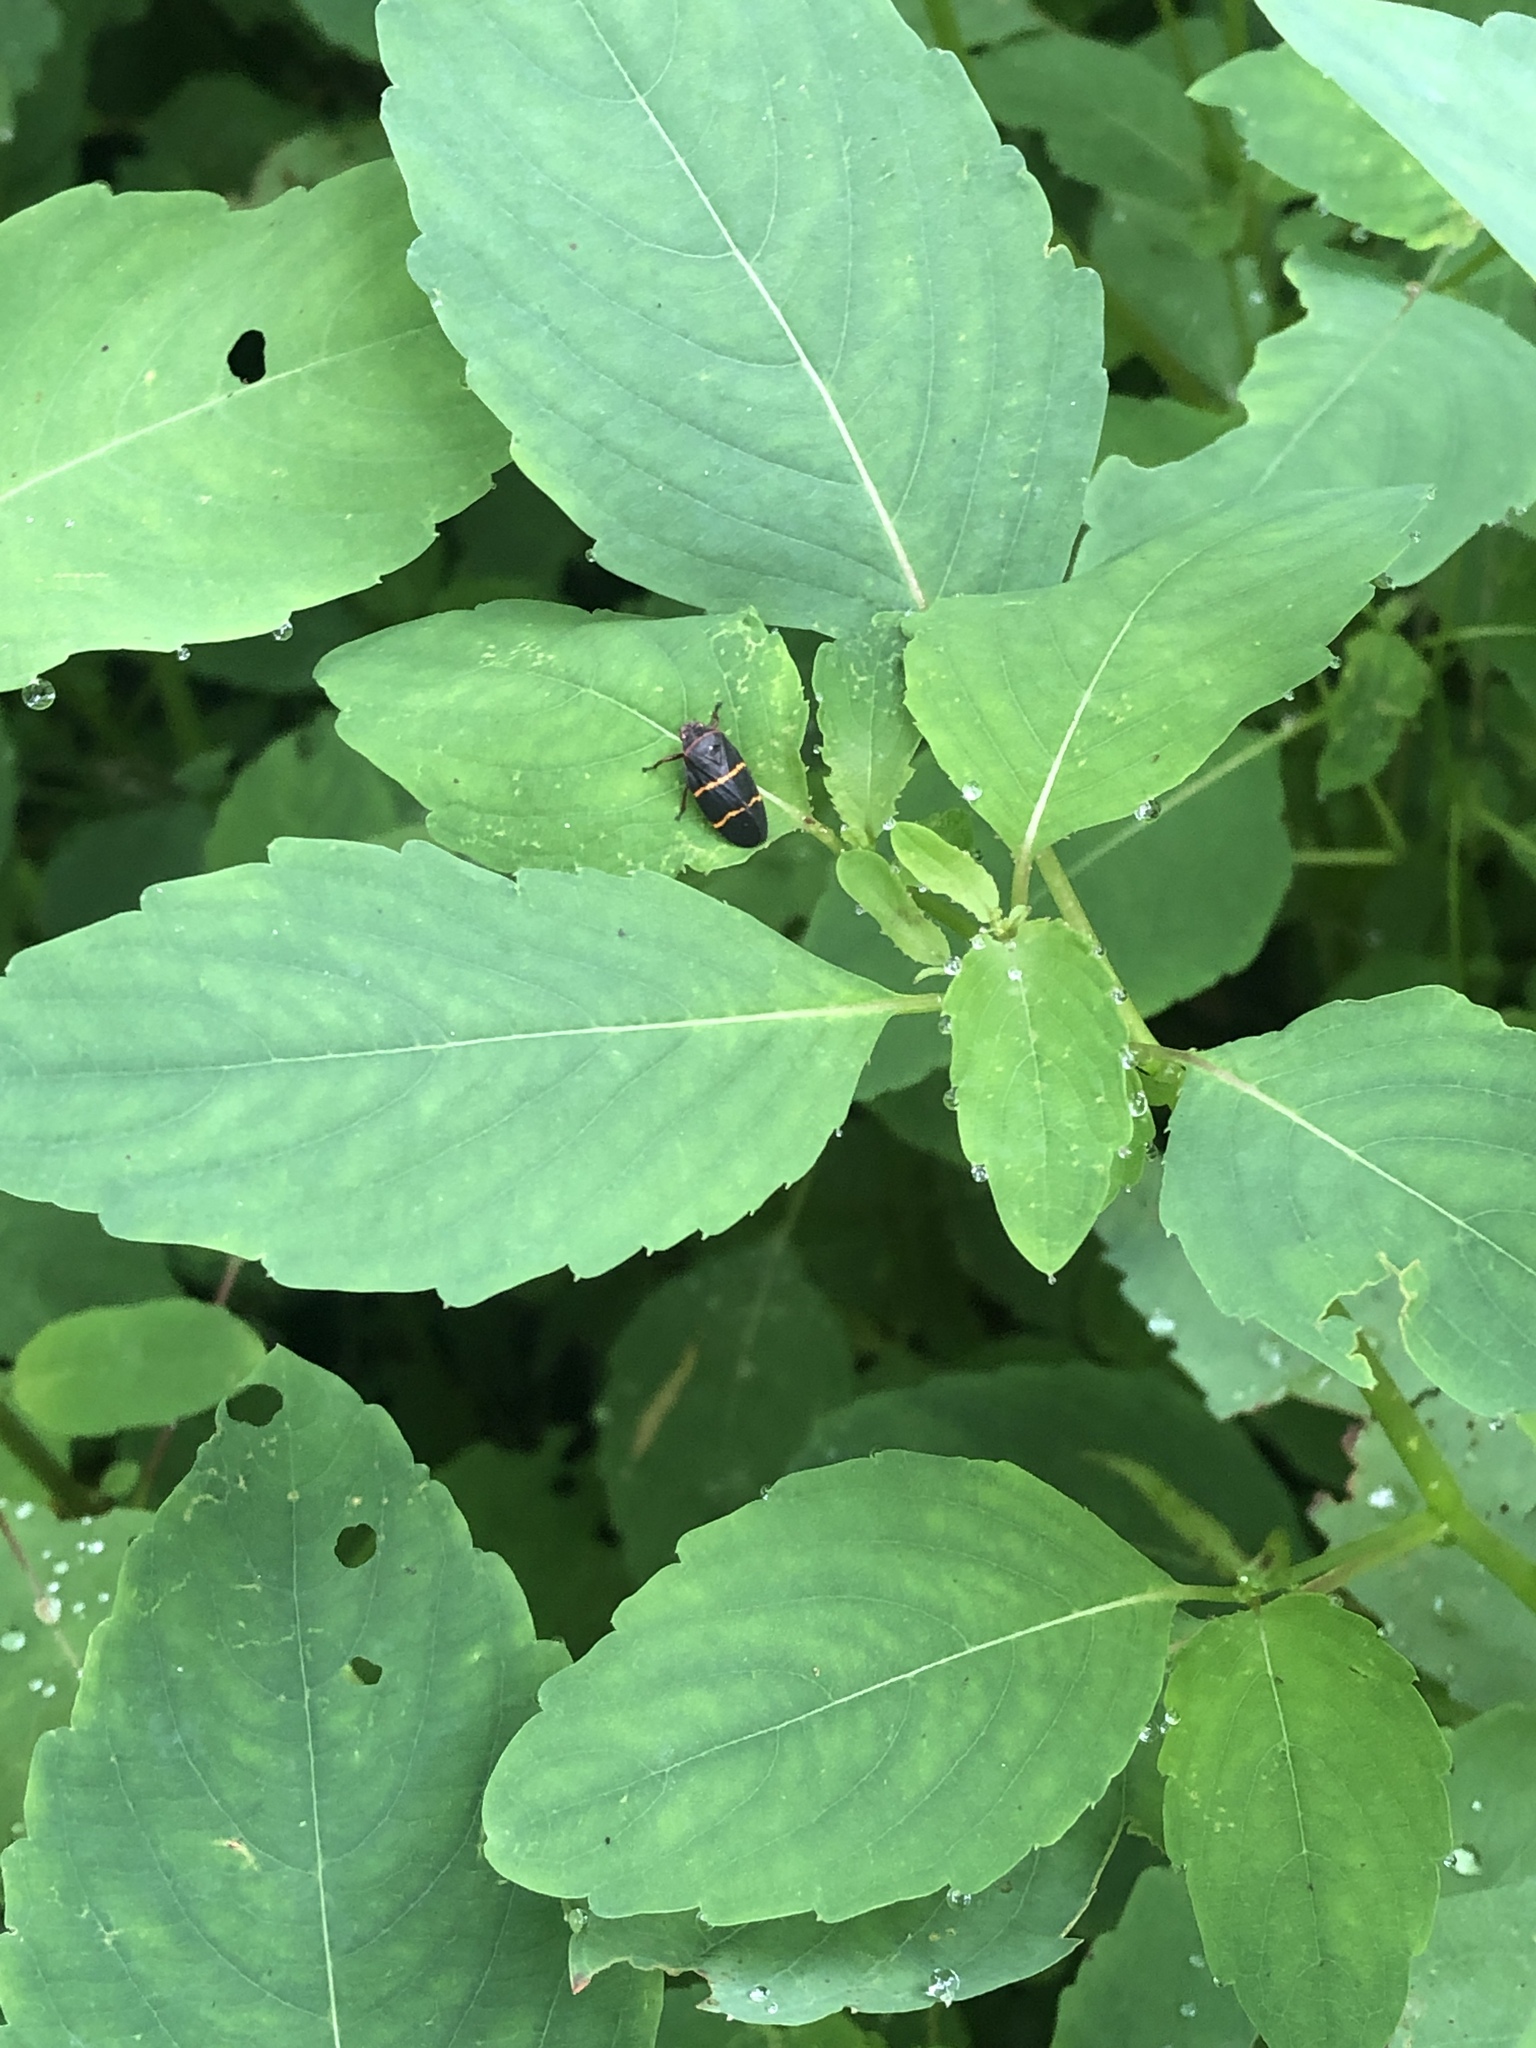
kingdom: Animalia
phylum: Arthropoda
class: Insecta
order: Hemiptera
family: Cercopidae
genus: Prosapia
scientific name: Prosapia bicincta
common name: Twolined spittlebug
